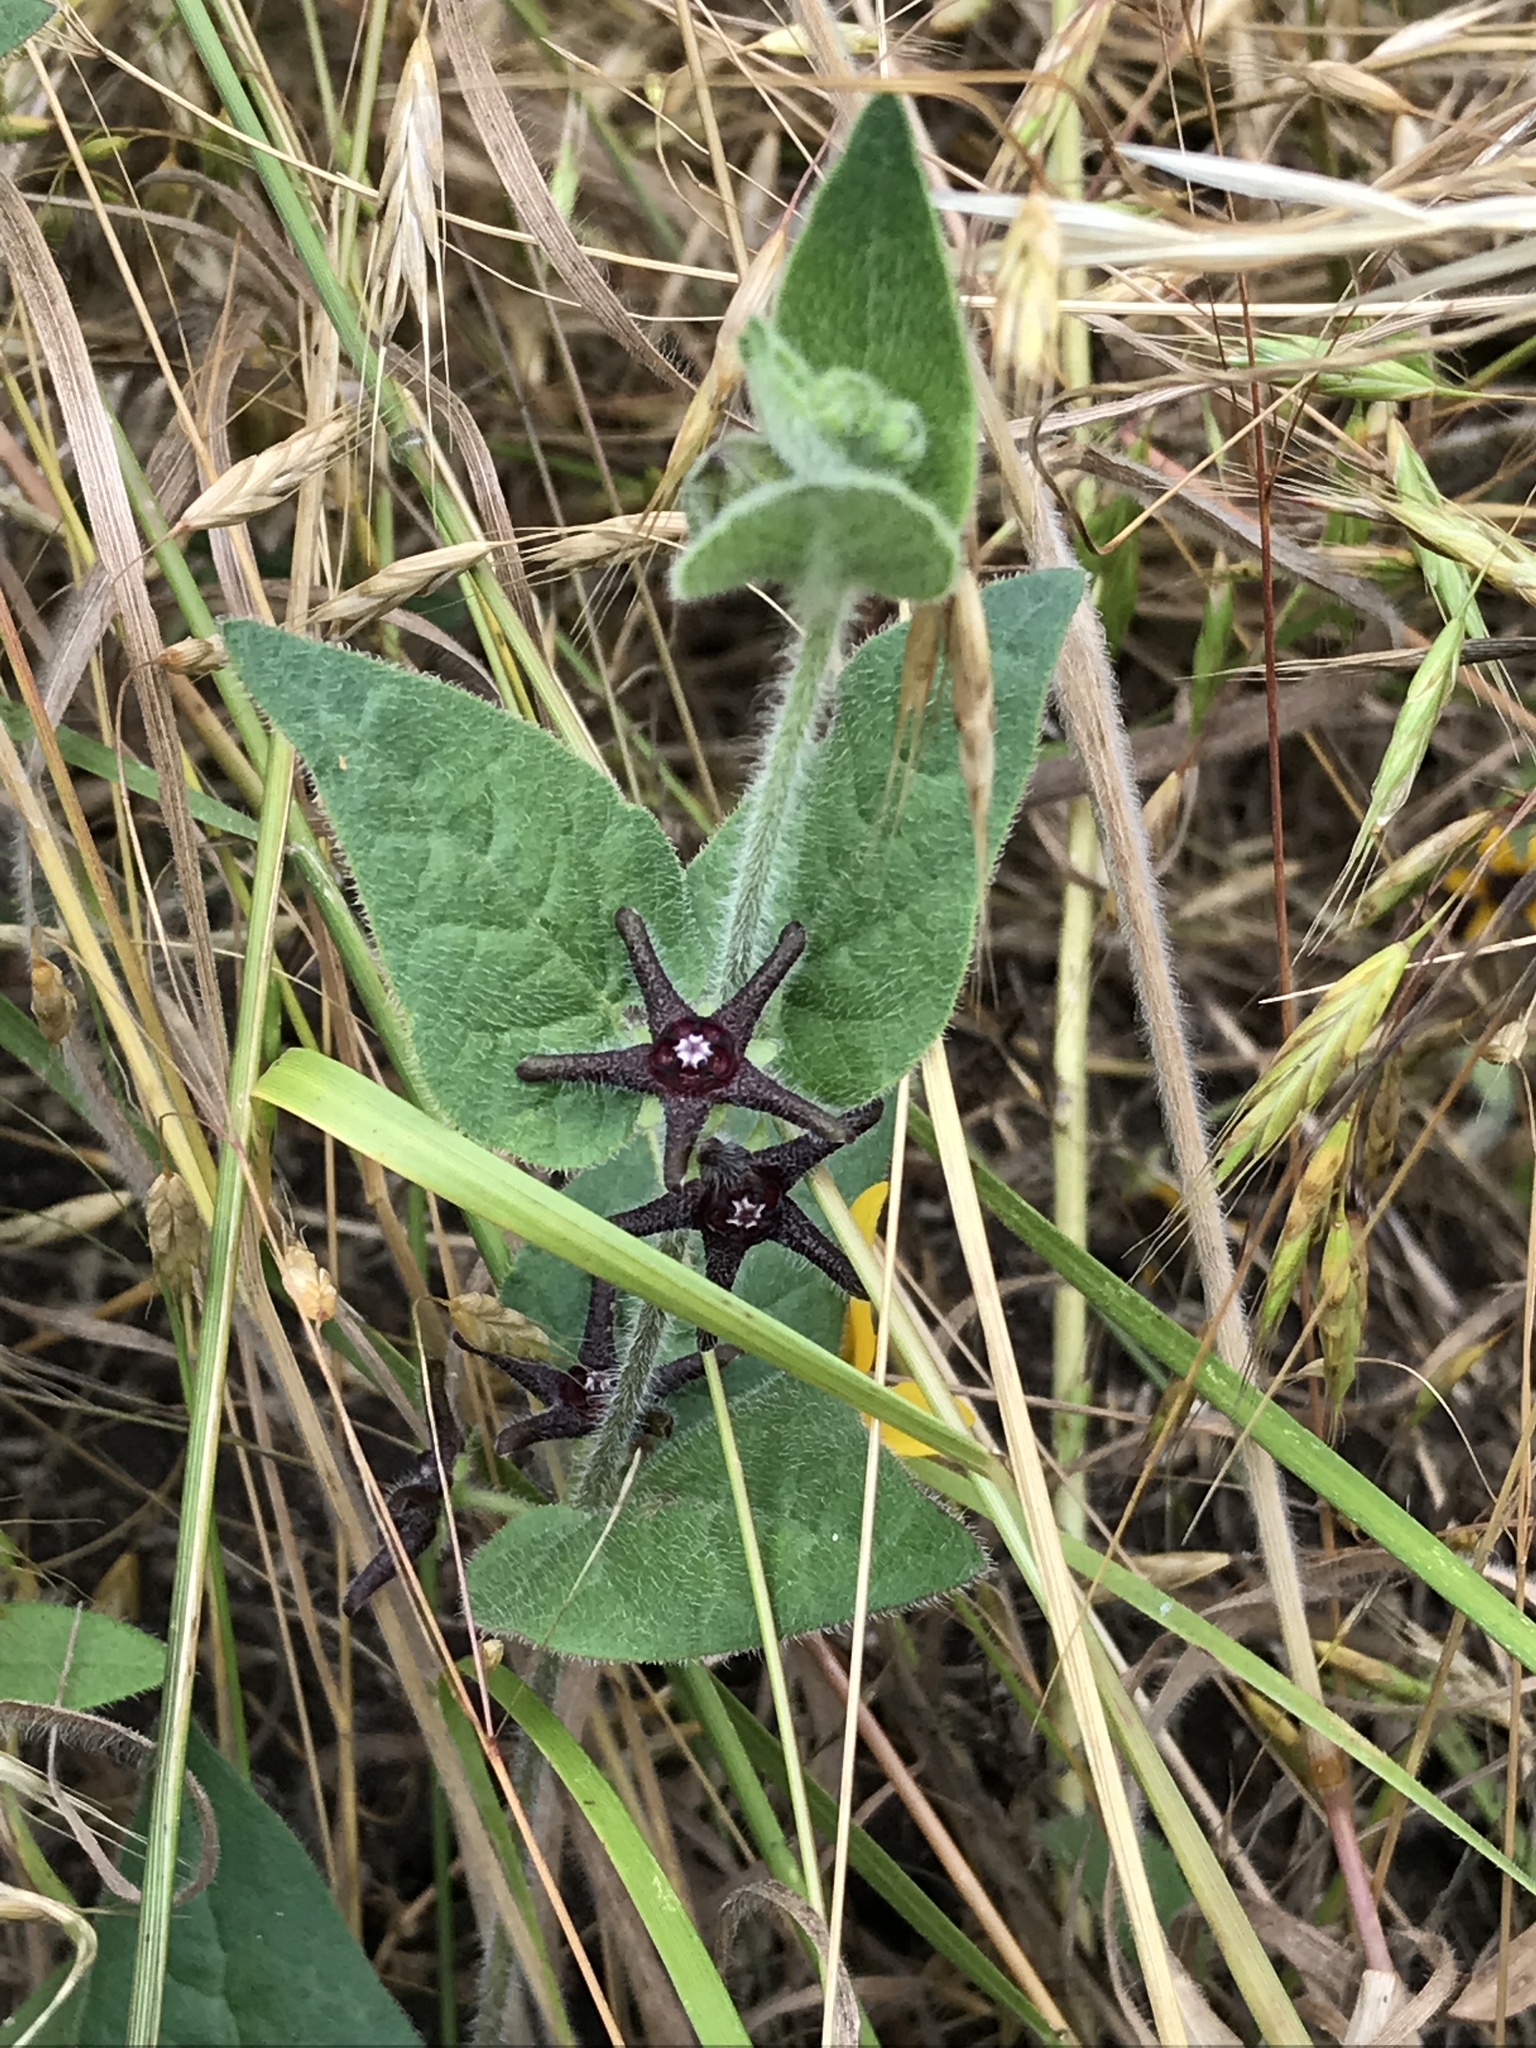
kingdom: Plantae
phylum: Tracheophyta
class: Magnoliopsida
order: Gentianales
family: Apocynaceae
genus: Chthamalia
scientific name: Chthamalia biflora
